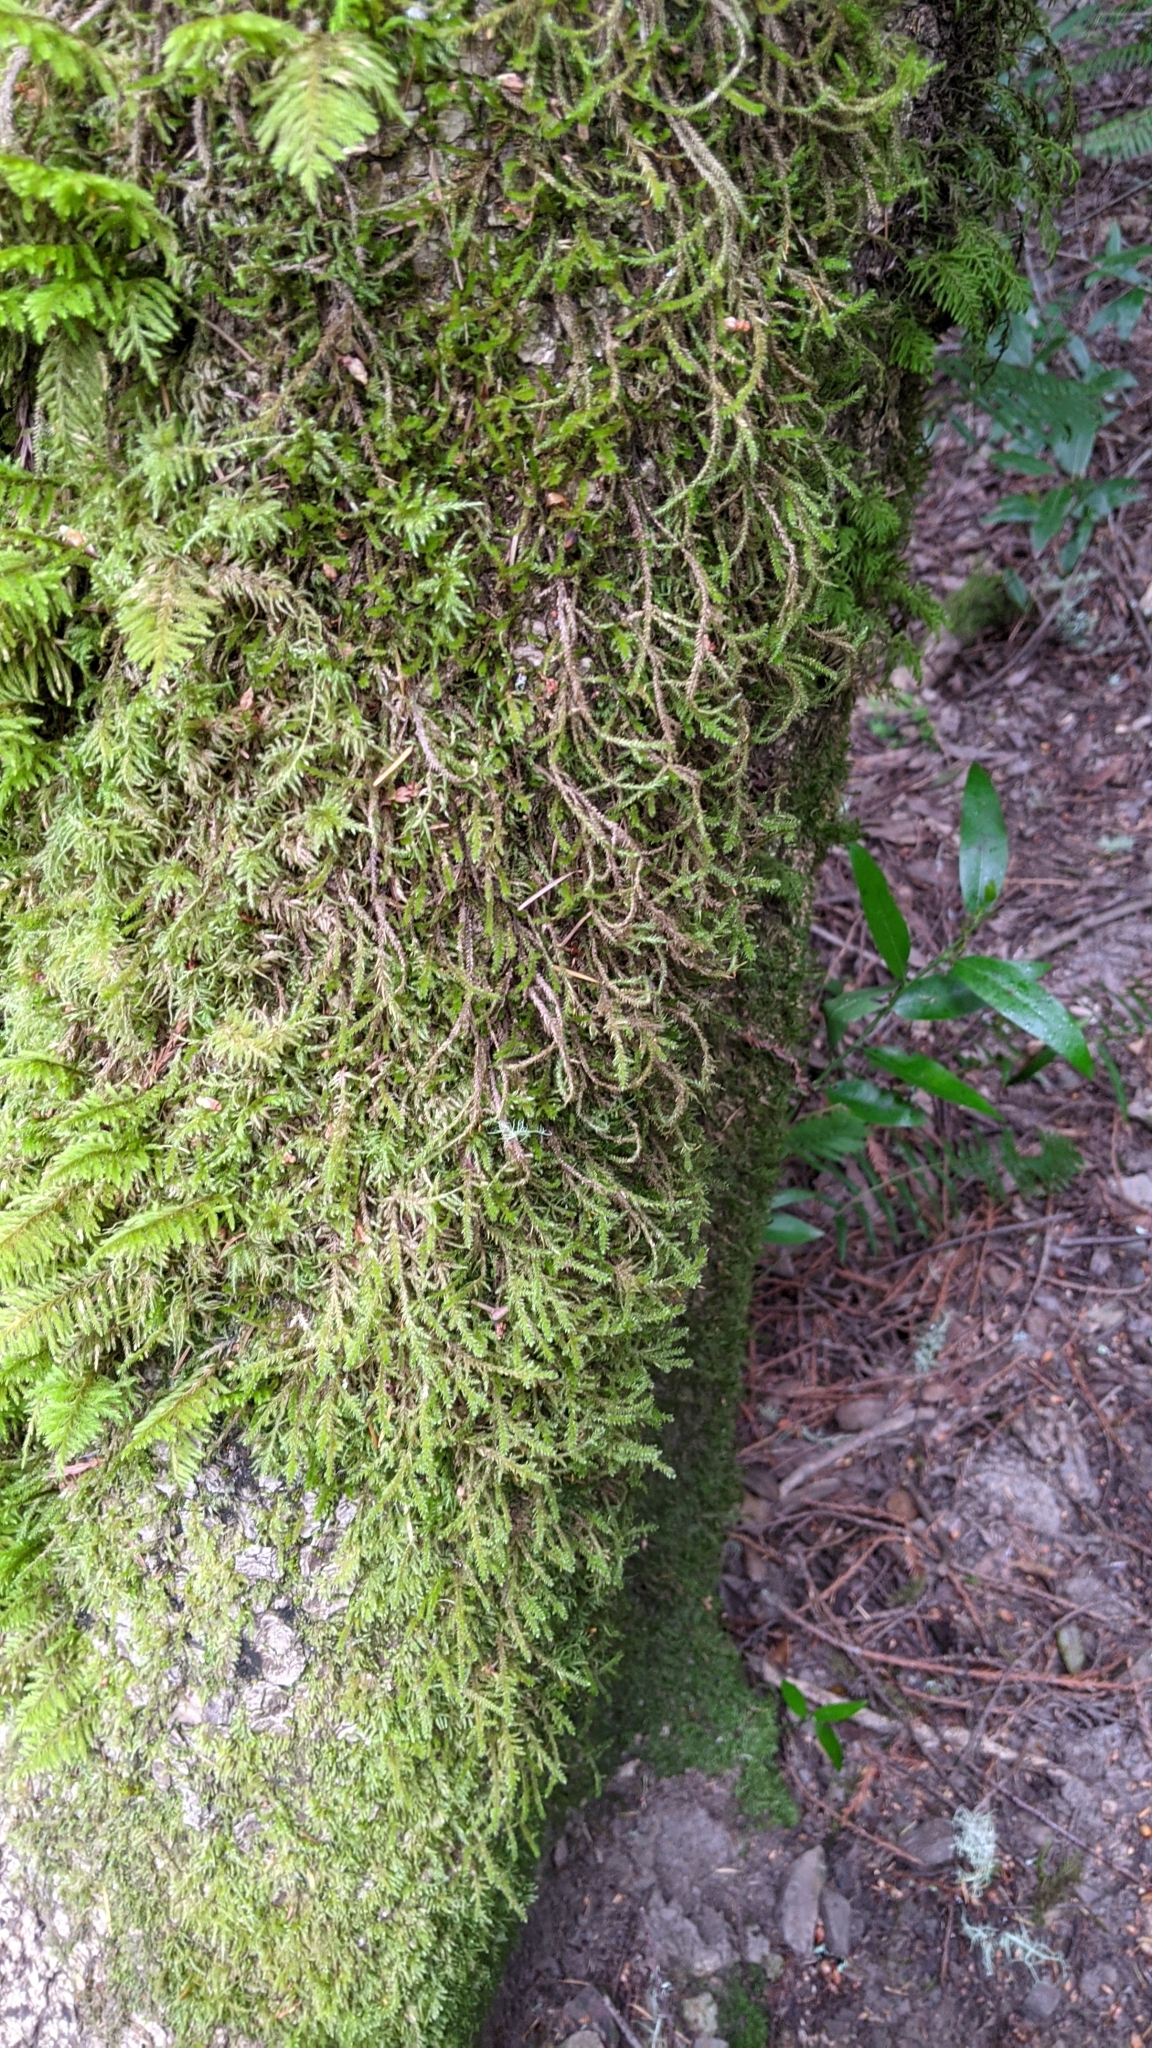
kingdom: Plantae
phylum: Bryophyta
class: Bryopsida
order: Hypnales
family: Cryphaeaceae
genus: Dendroalsia
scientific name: Dendroalsia abietina
